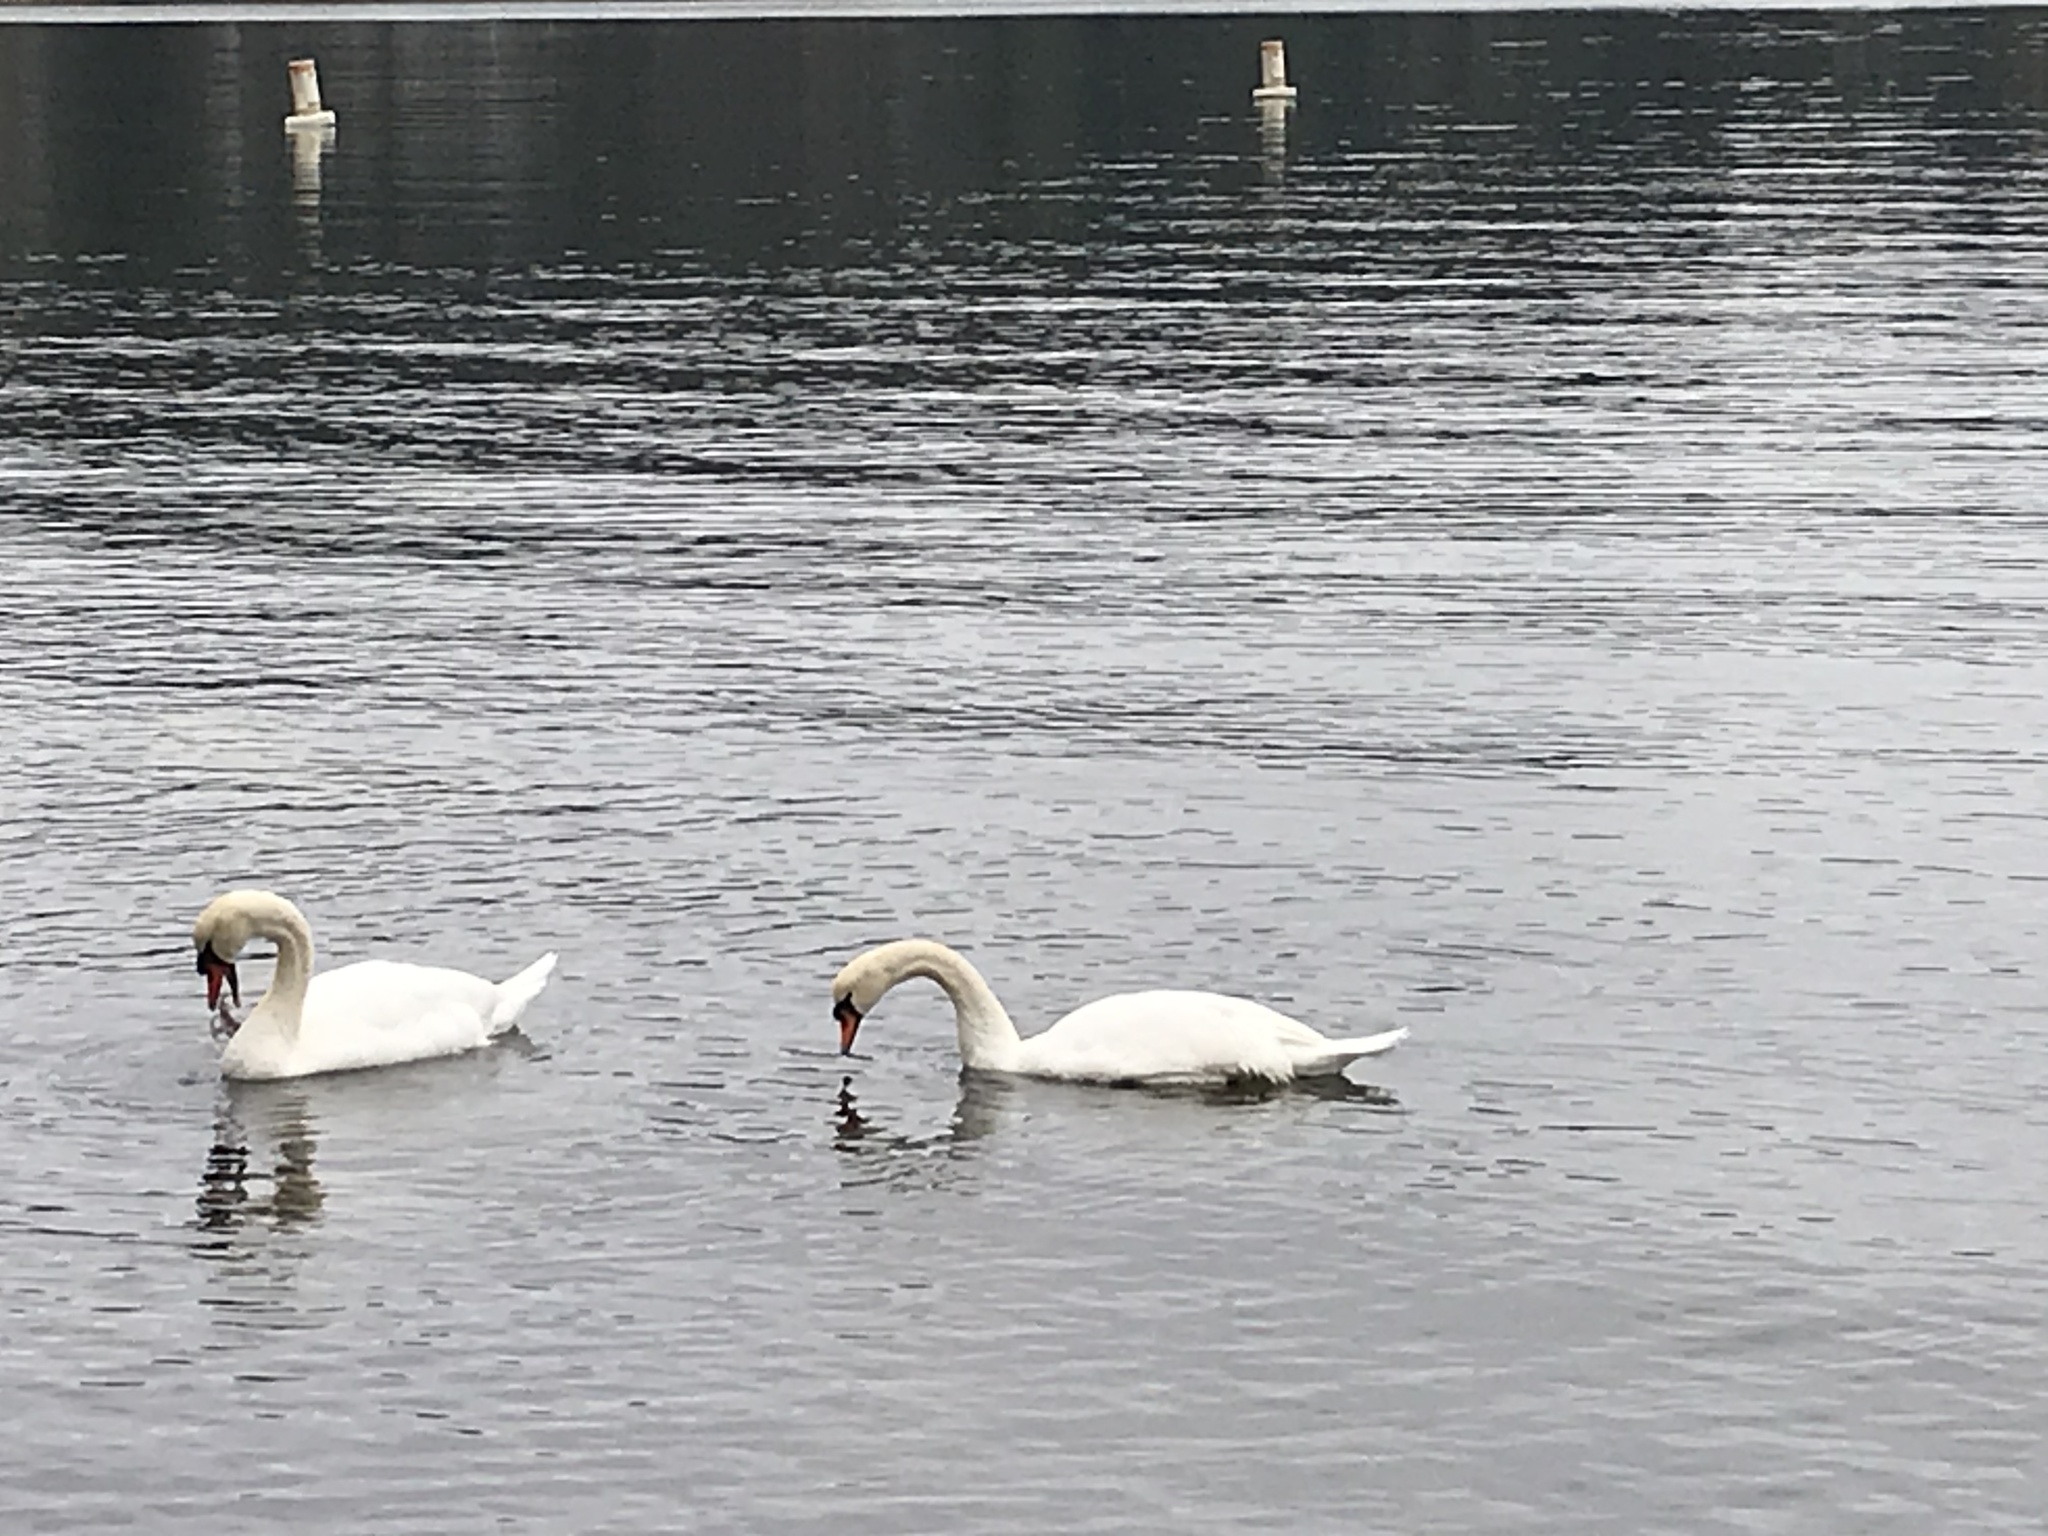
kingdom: Animalia
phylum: Chordata
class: Aves
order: Anseriformes
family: Anatidae
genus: Cygnus
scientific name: Cygnus olor
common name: Mute swan
